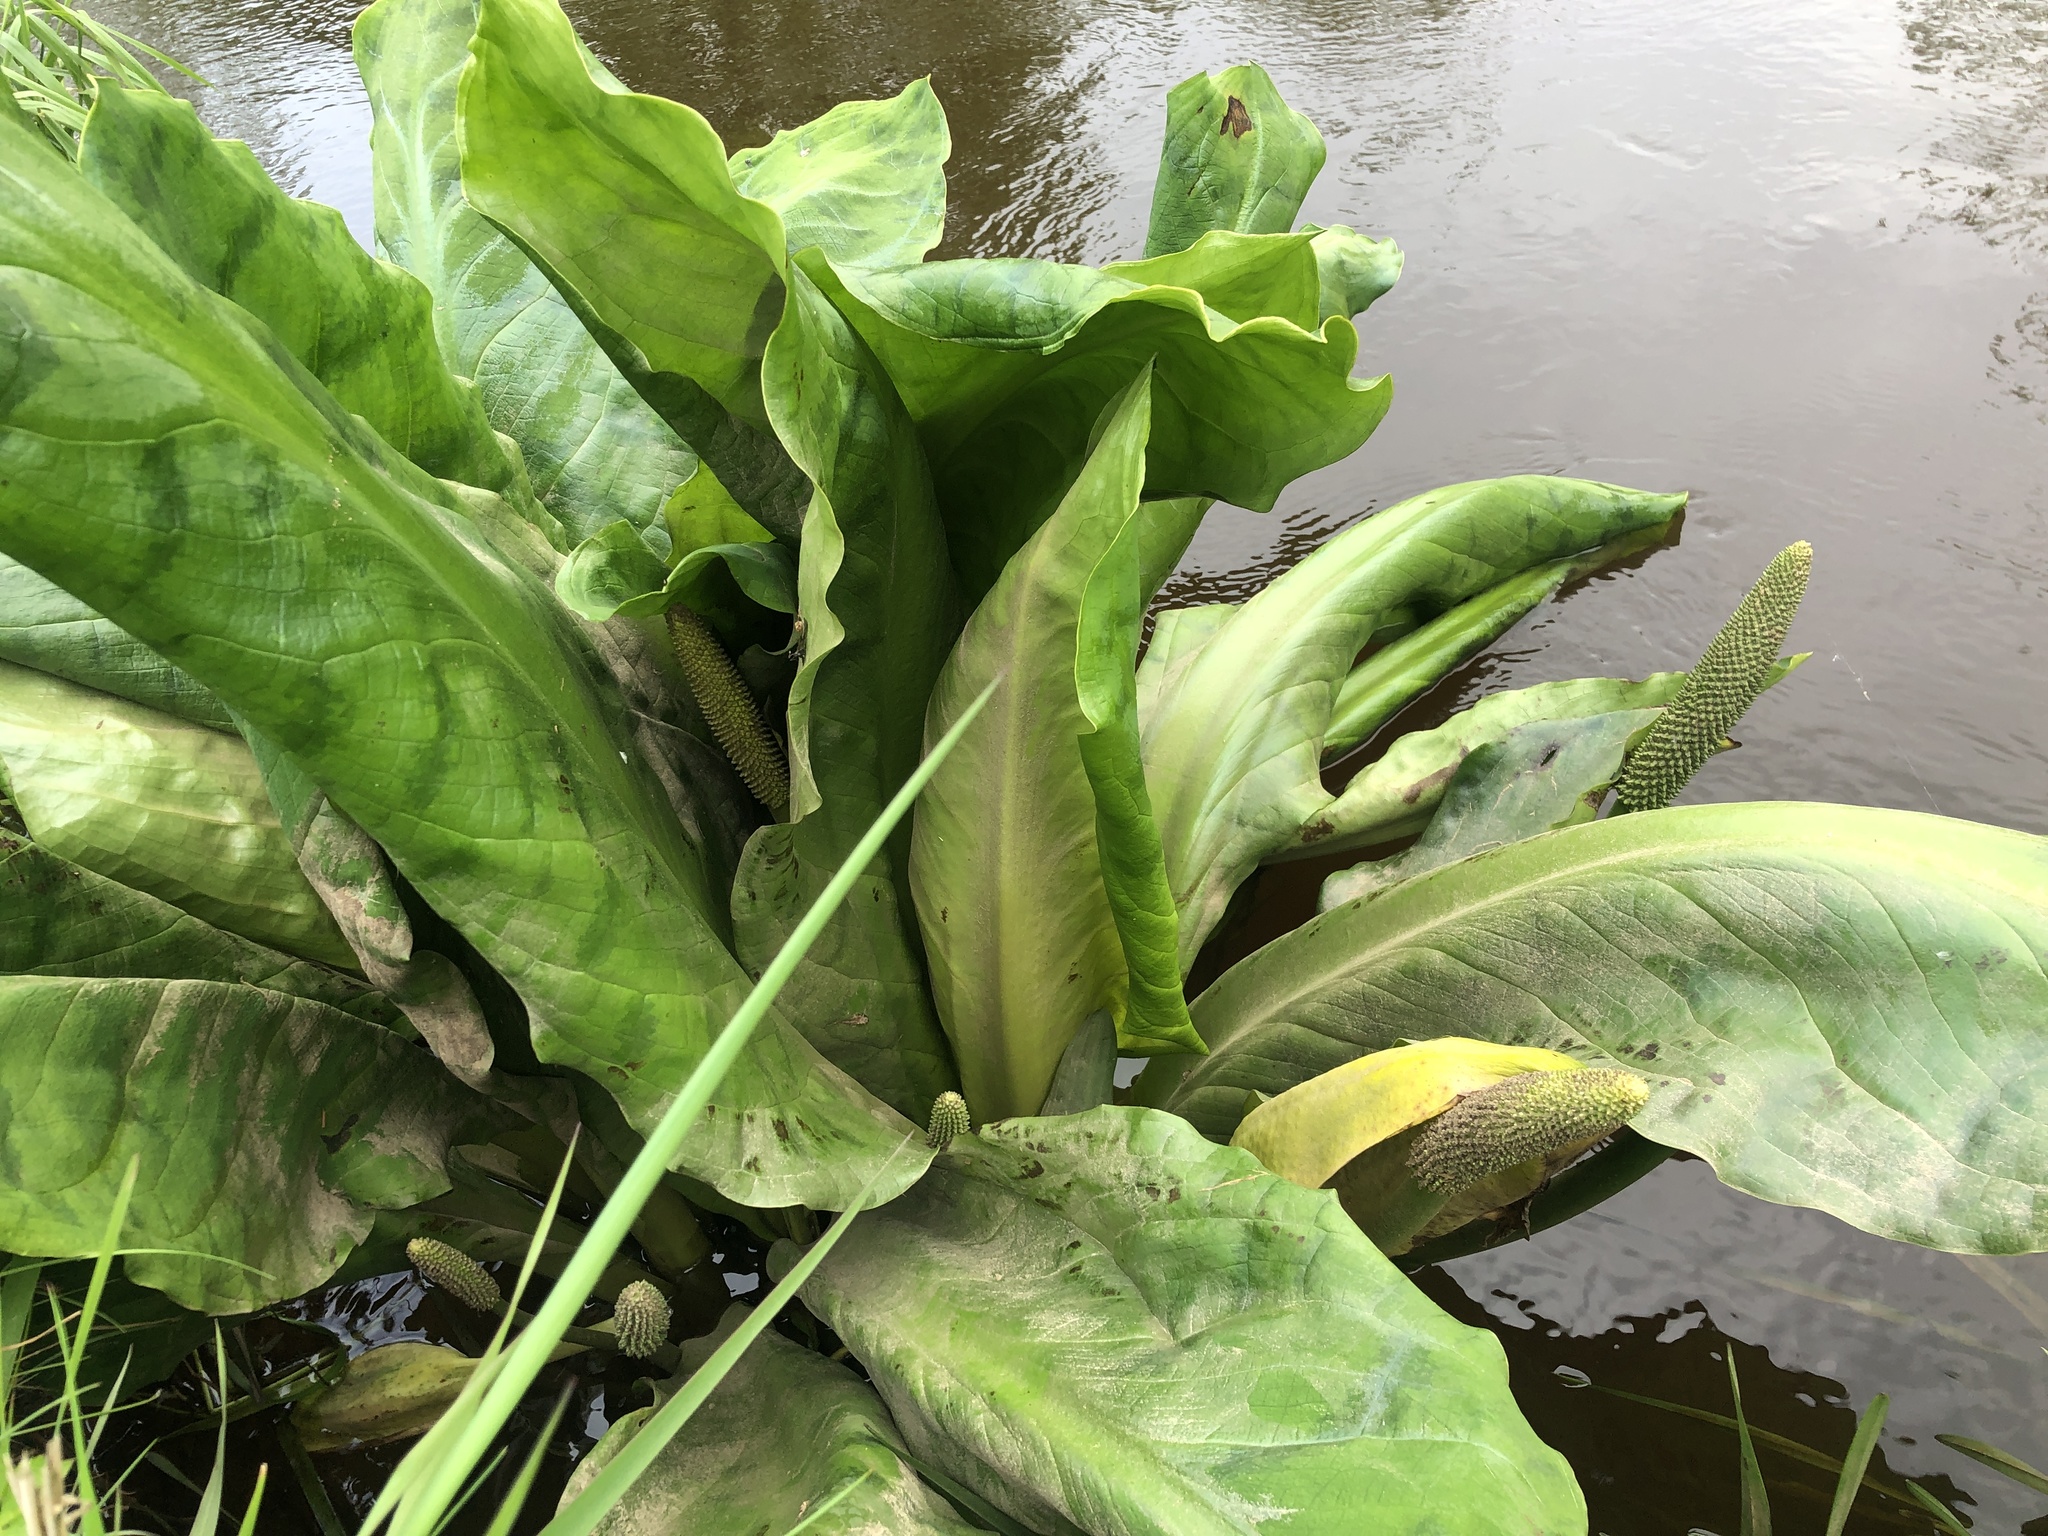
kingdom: Plantae
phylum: Tracheophyta
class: Liliopsida
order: Alismatales
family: Araceae
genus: Lysichiton
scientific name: Lysichiton americanus
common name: American skunk cabbage
